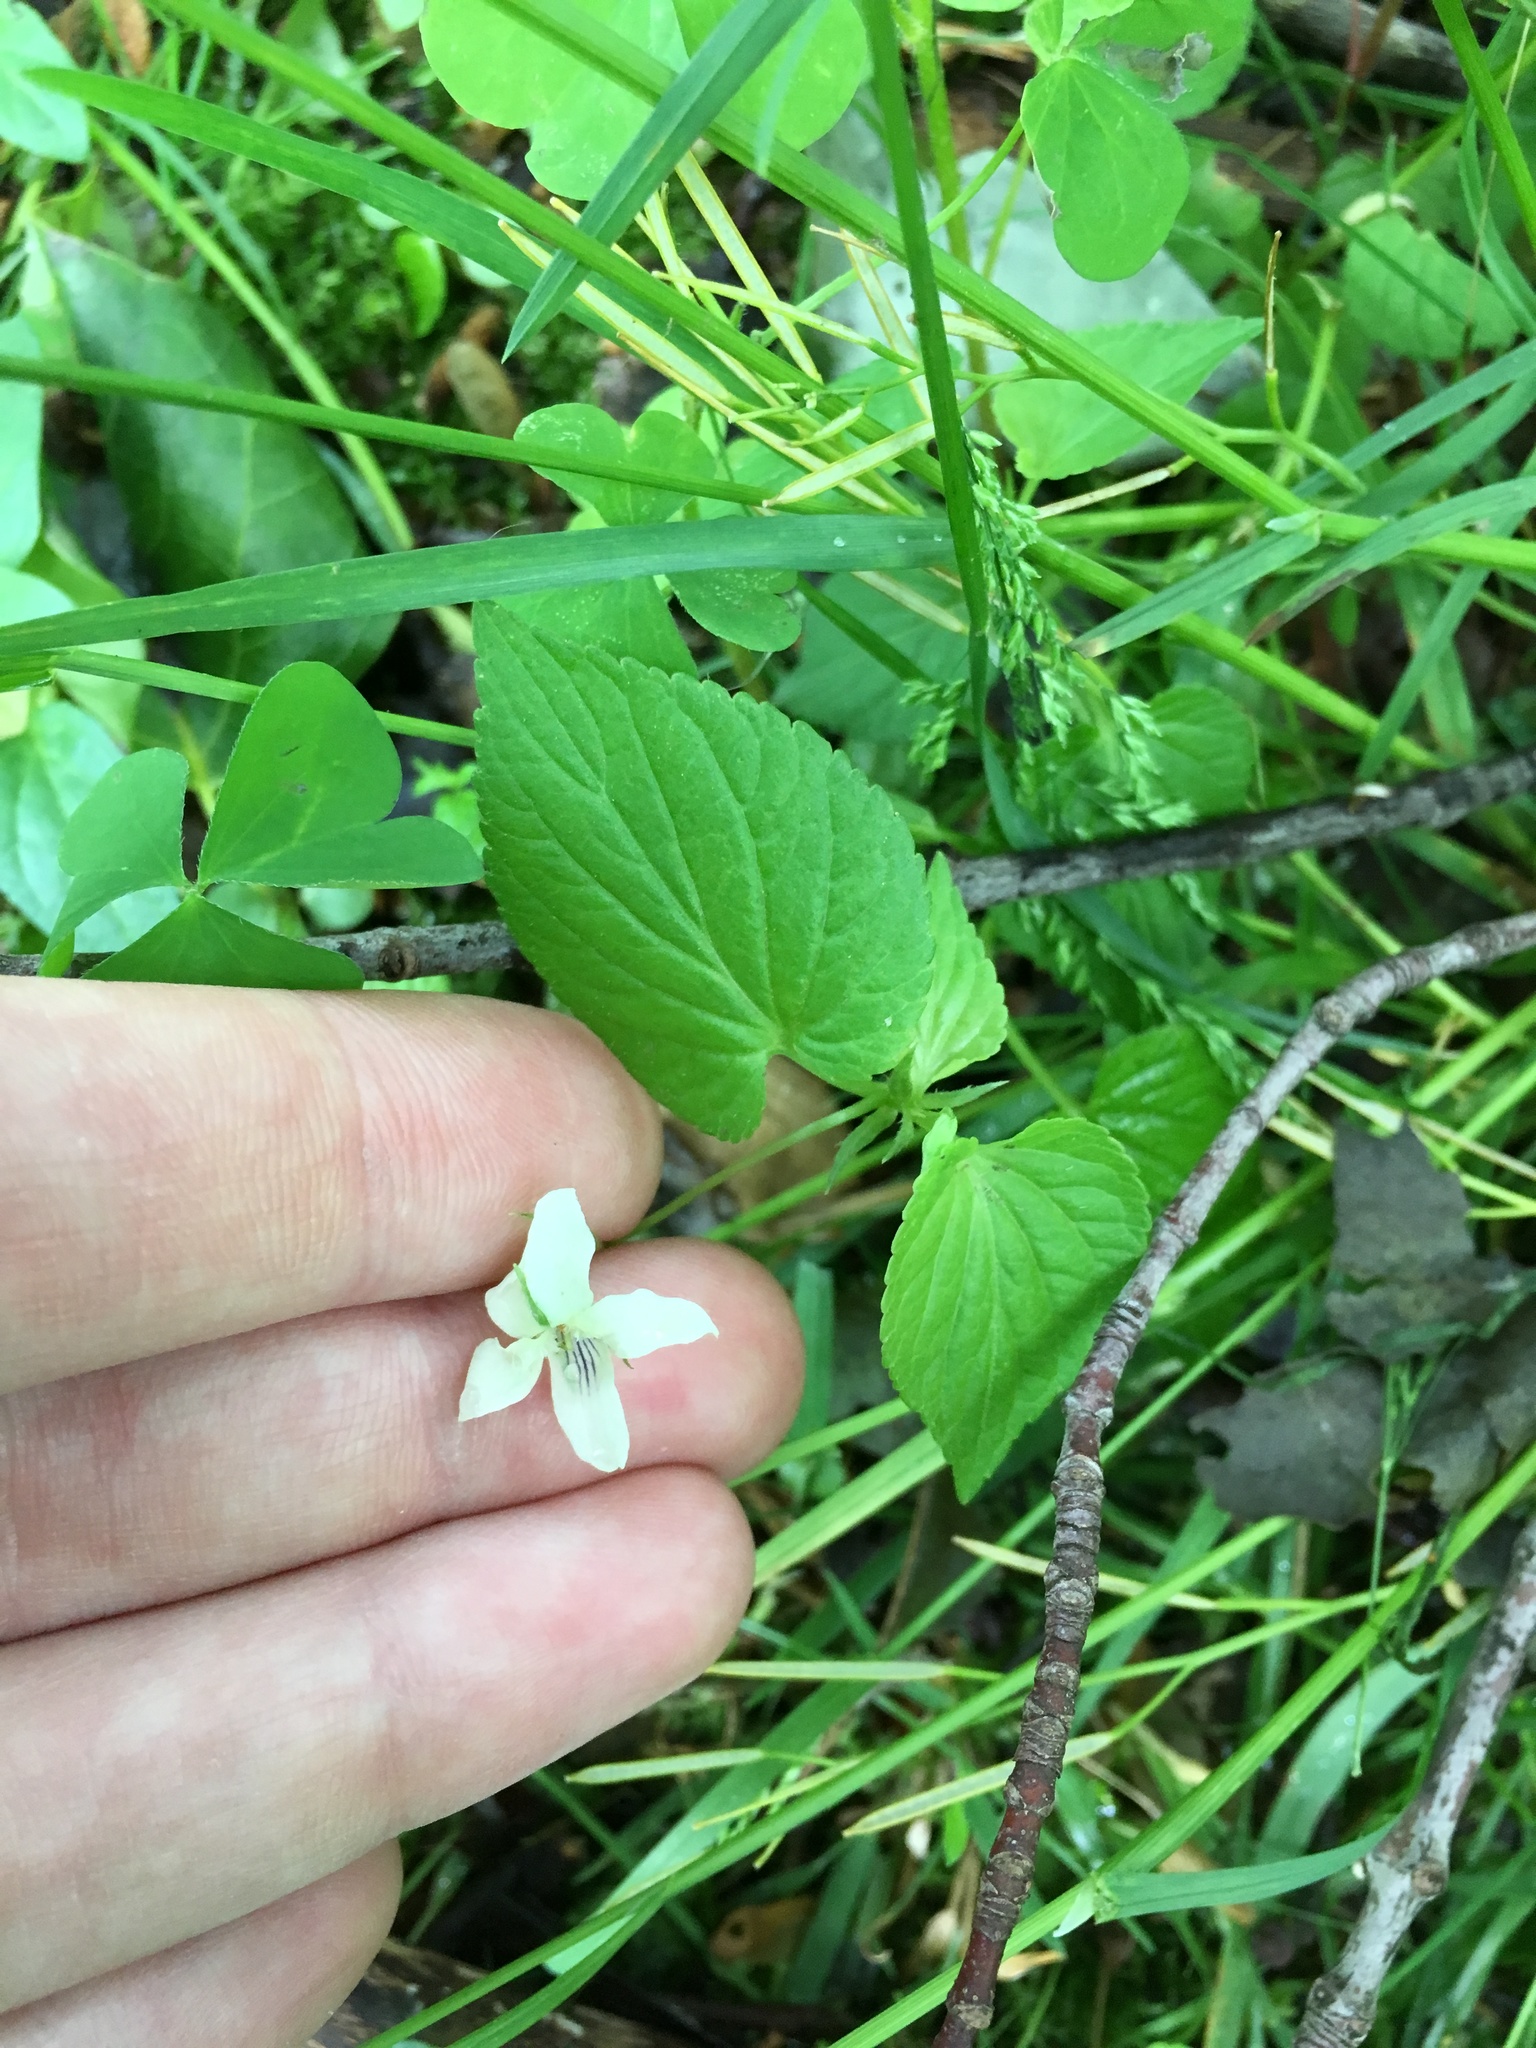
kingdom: Plantae
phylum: Tracheophyta
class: Magnoliopsida
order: Malpighiales
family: Violaceae
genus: Viola
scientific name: Viola striata
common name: Cream violet
